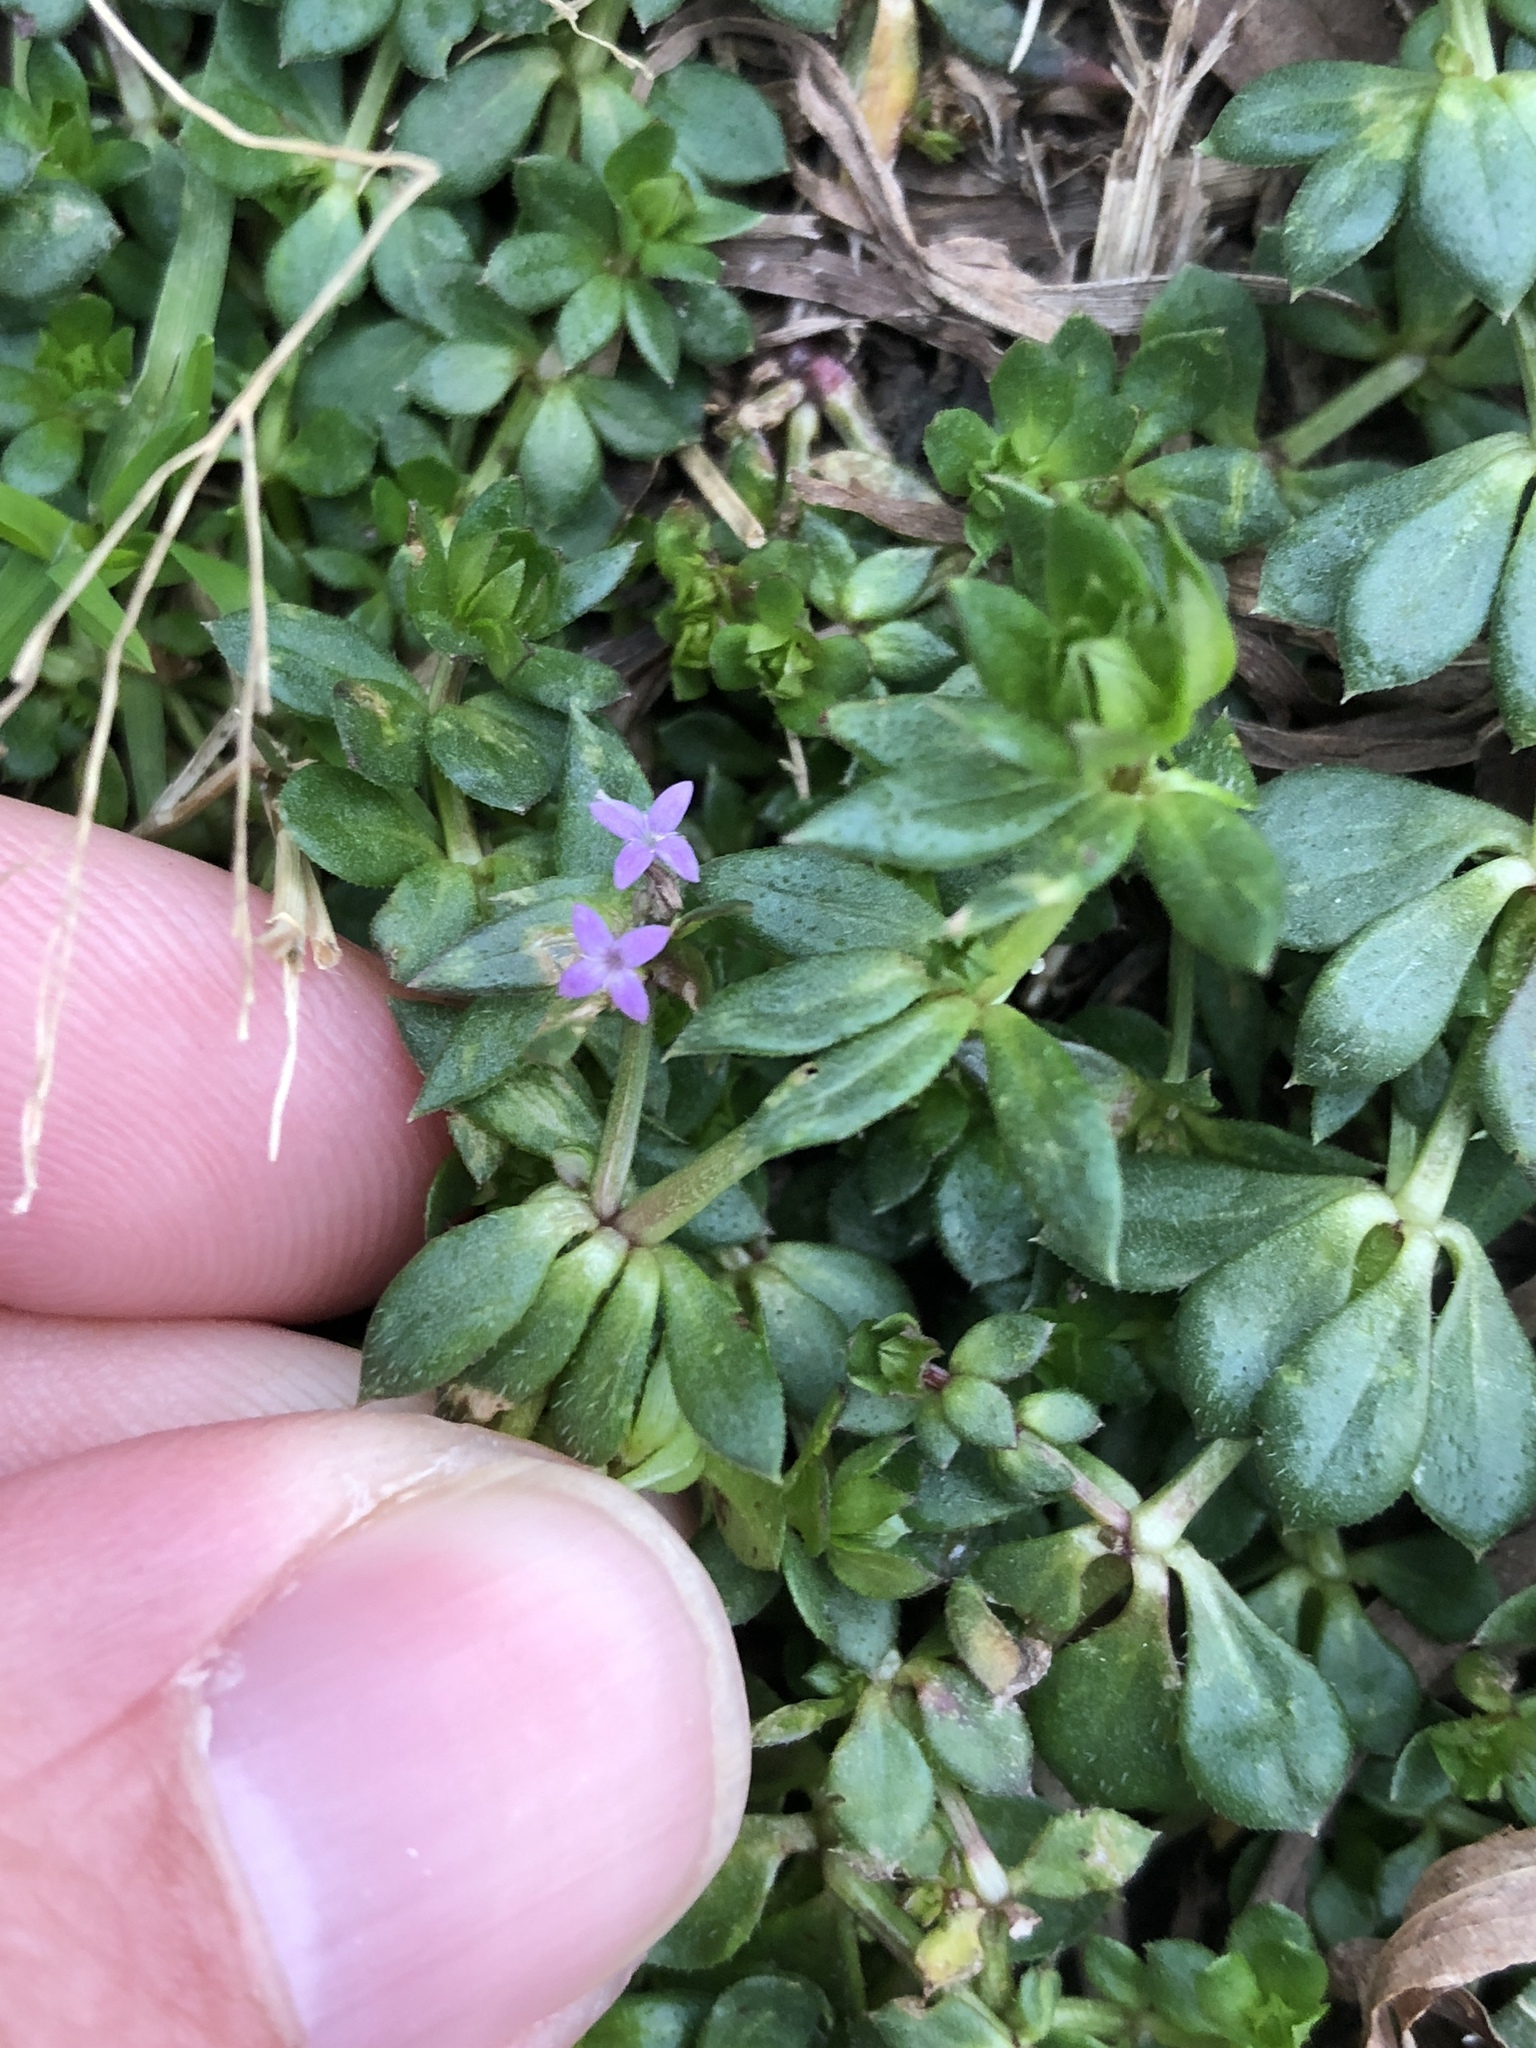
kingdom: Plantae
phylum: Tracheophyta
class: Magnoliopsida
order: Gentianales
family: Rubiaceae
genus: Sherardia
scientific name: Sherardia arvensis
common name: Field madder
